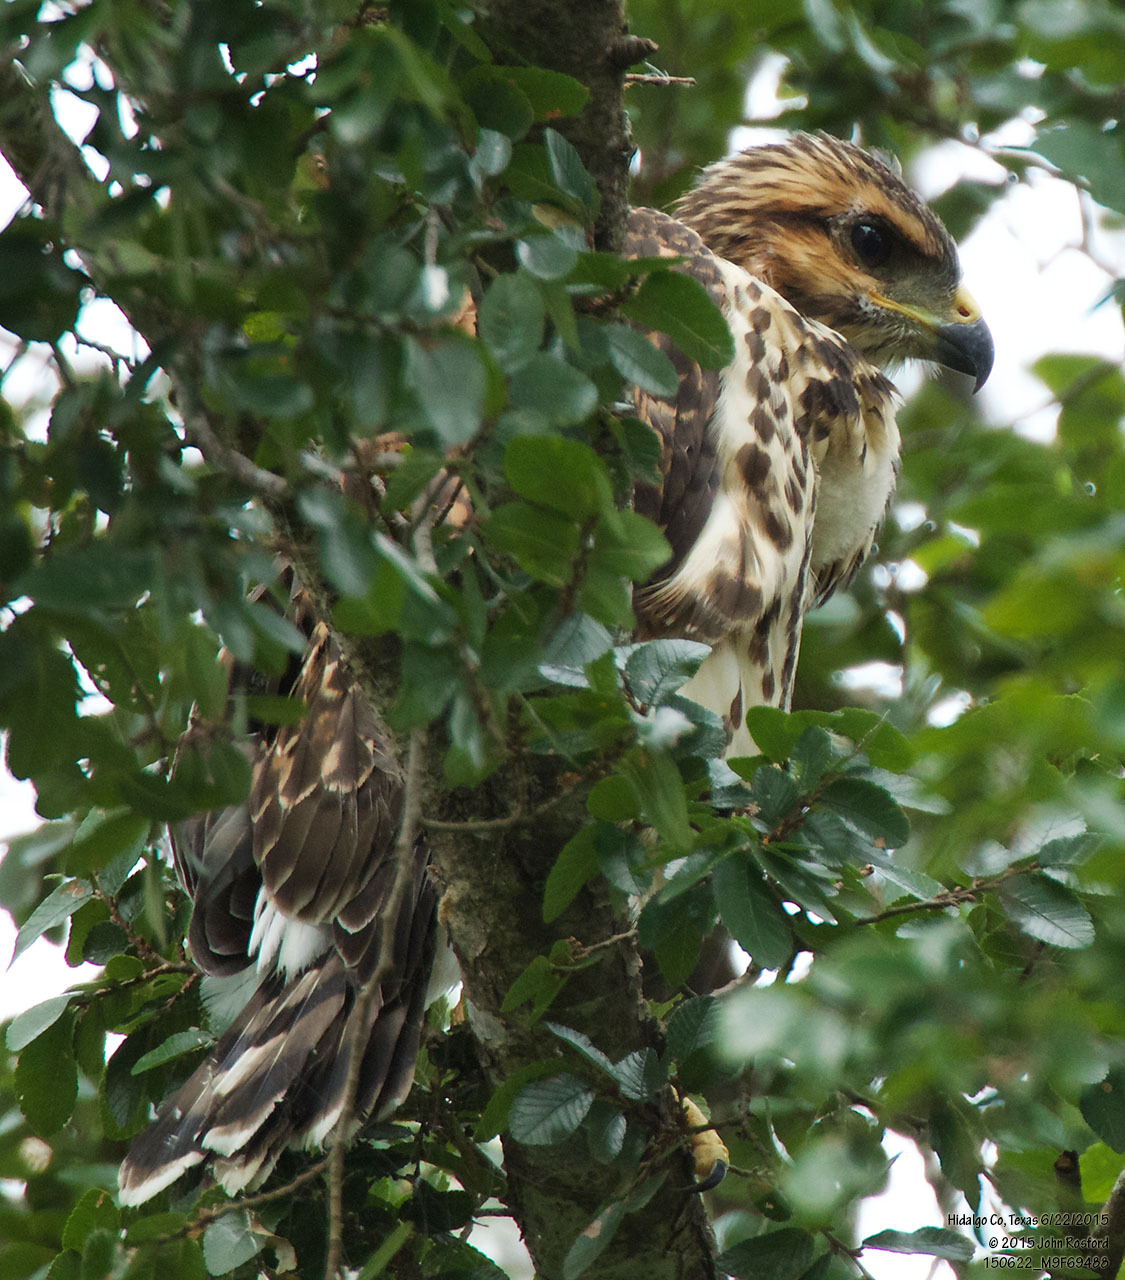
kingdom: Animalia
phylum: Chordata
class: Aves
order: Accipitriformes
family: Accipitridae
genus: Buteo
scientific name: Buteo nitidus
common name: Grey-lined hawk
